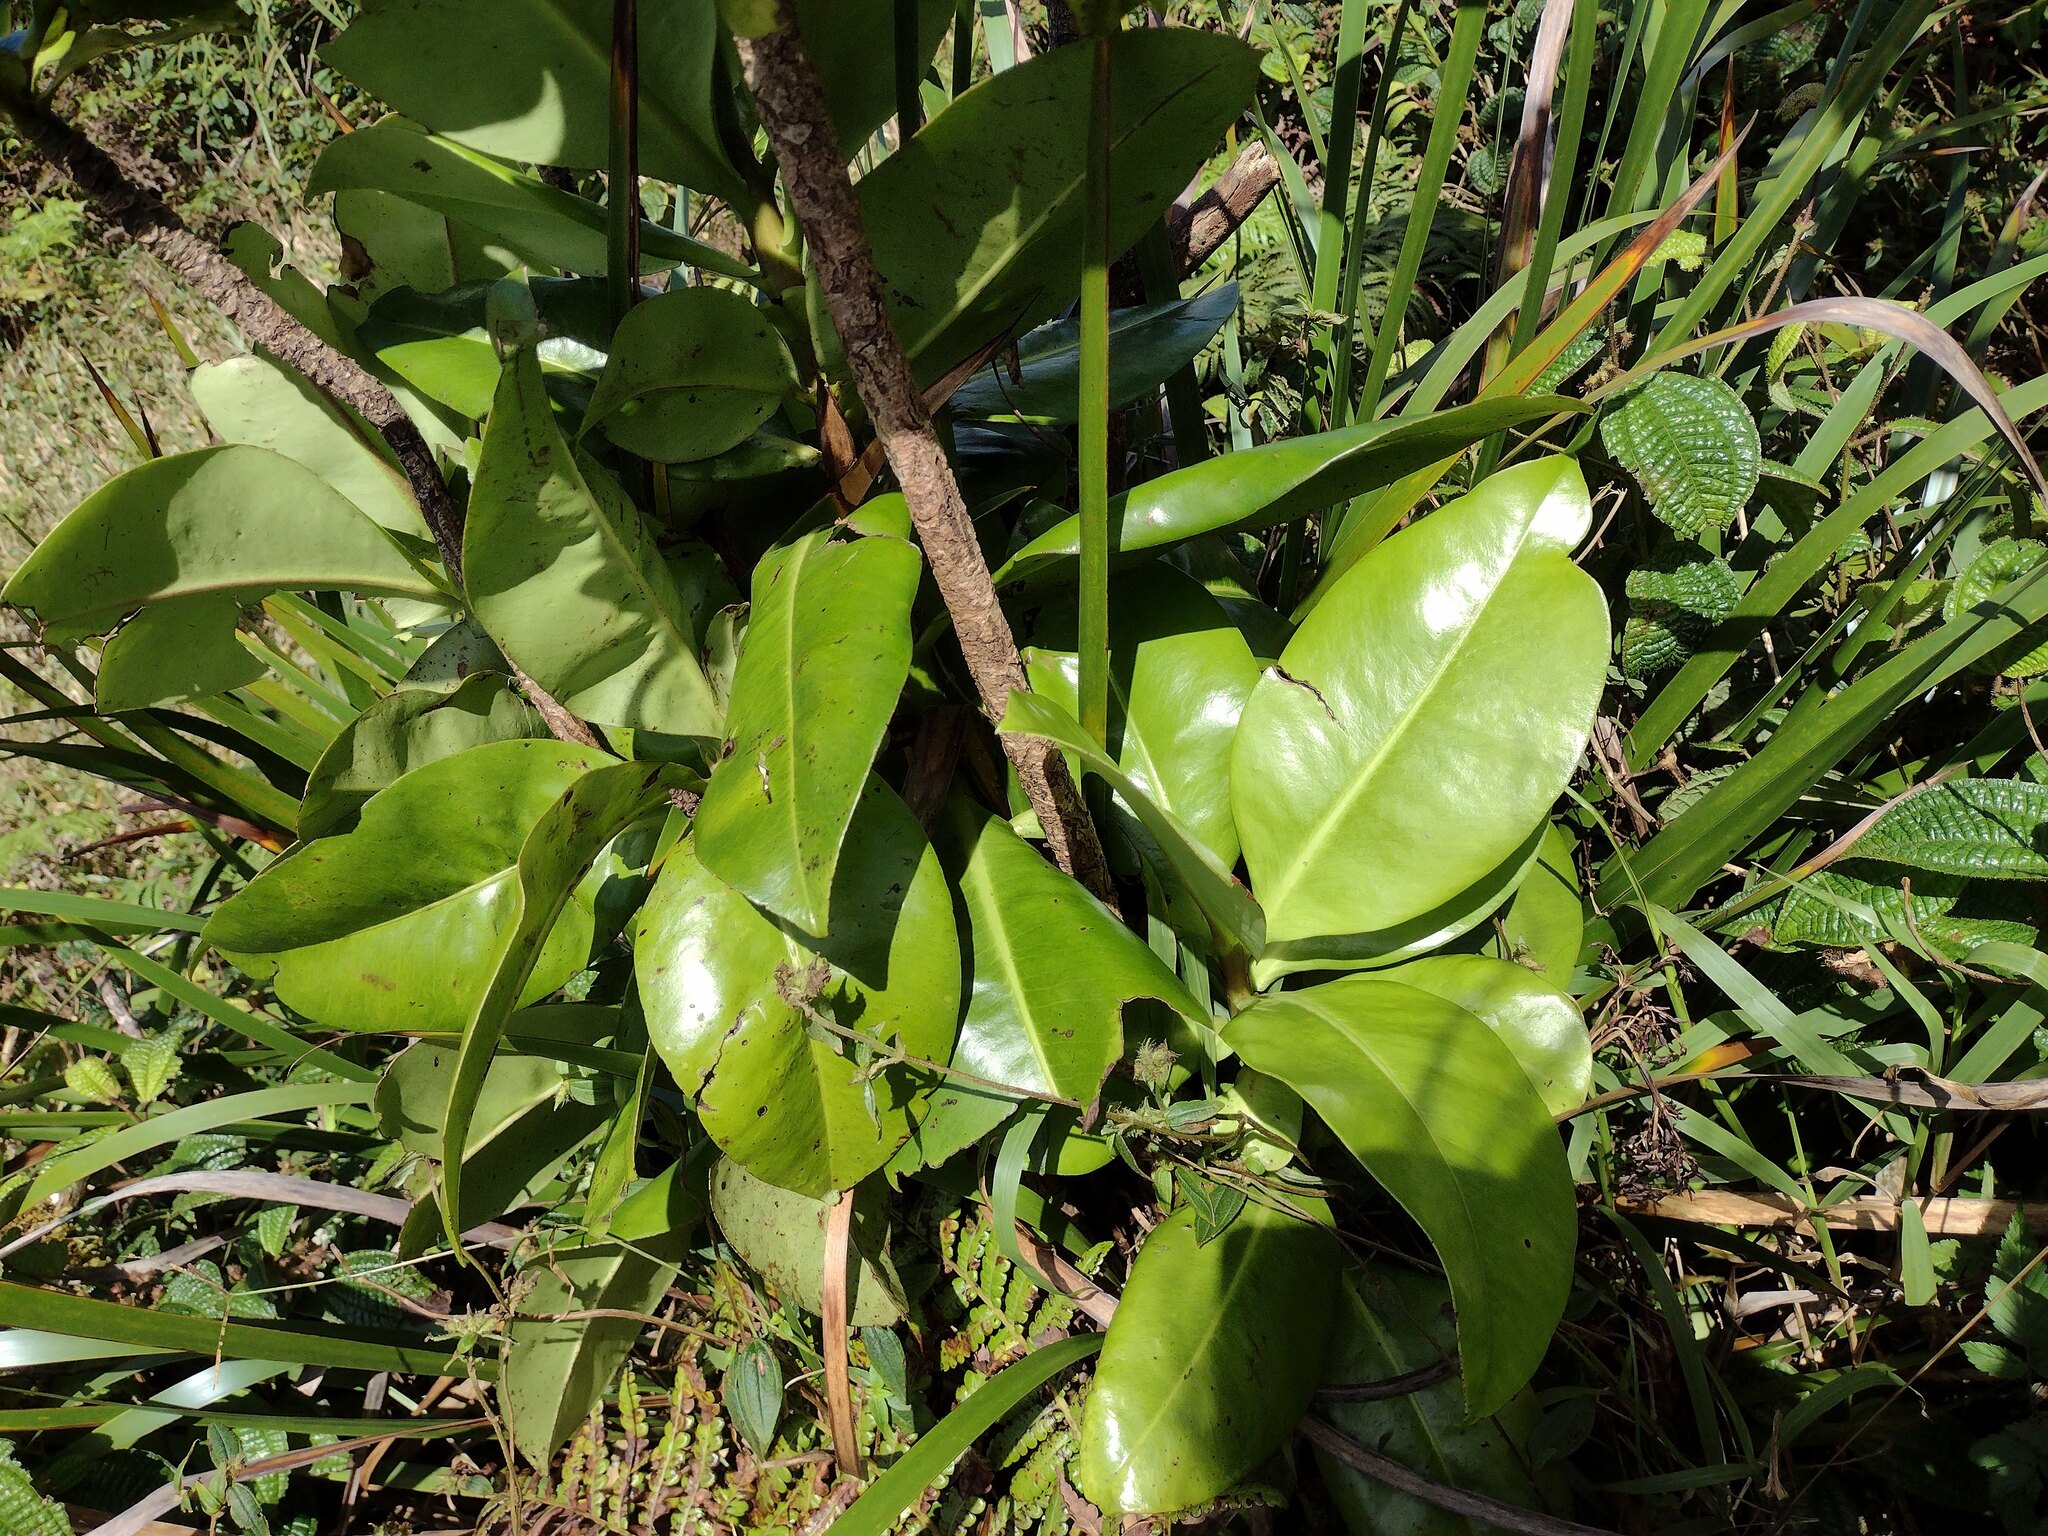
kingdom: Plantae
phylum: Tracheophyta
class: Magnoliopsida
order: Ericales
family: Primulaceae
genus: Myrsine
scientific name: Myrsine pukooensis
